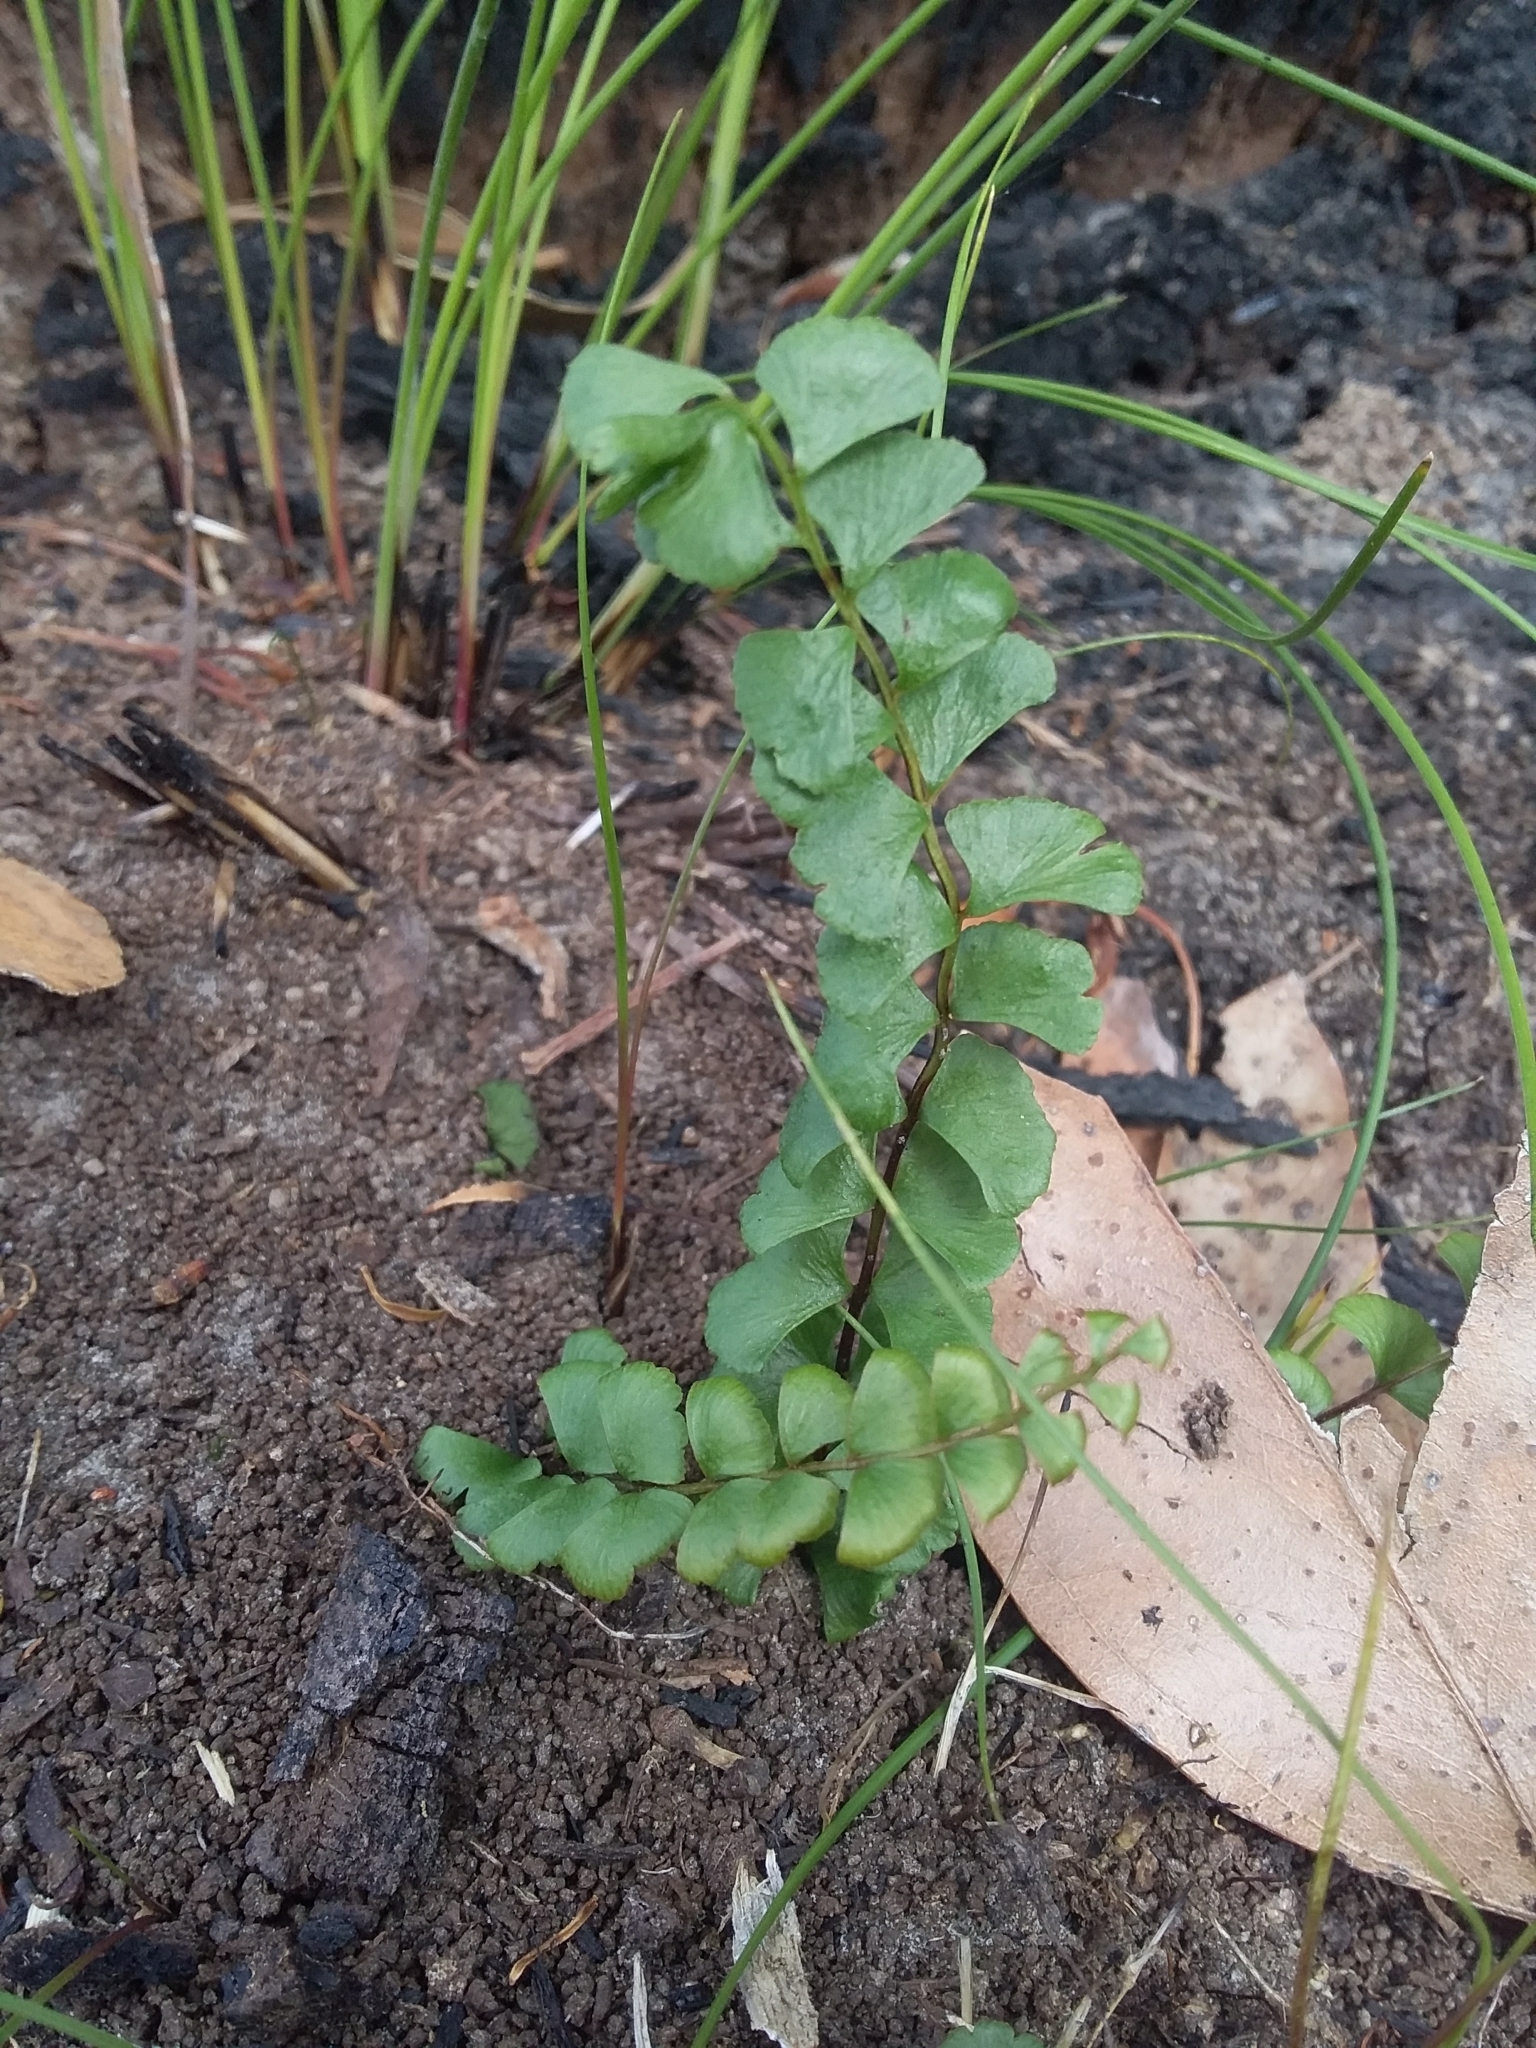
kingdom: Plantae
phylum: Tracheophyta
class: Polypodiopsida
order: Polypodiales
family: Lindsaeaceae
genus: Lindsaea
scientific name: Lindsaea linearis
